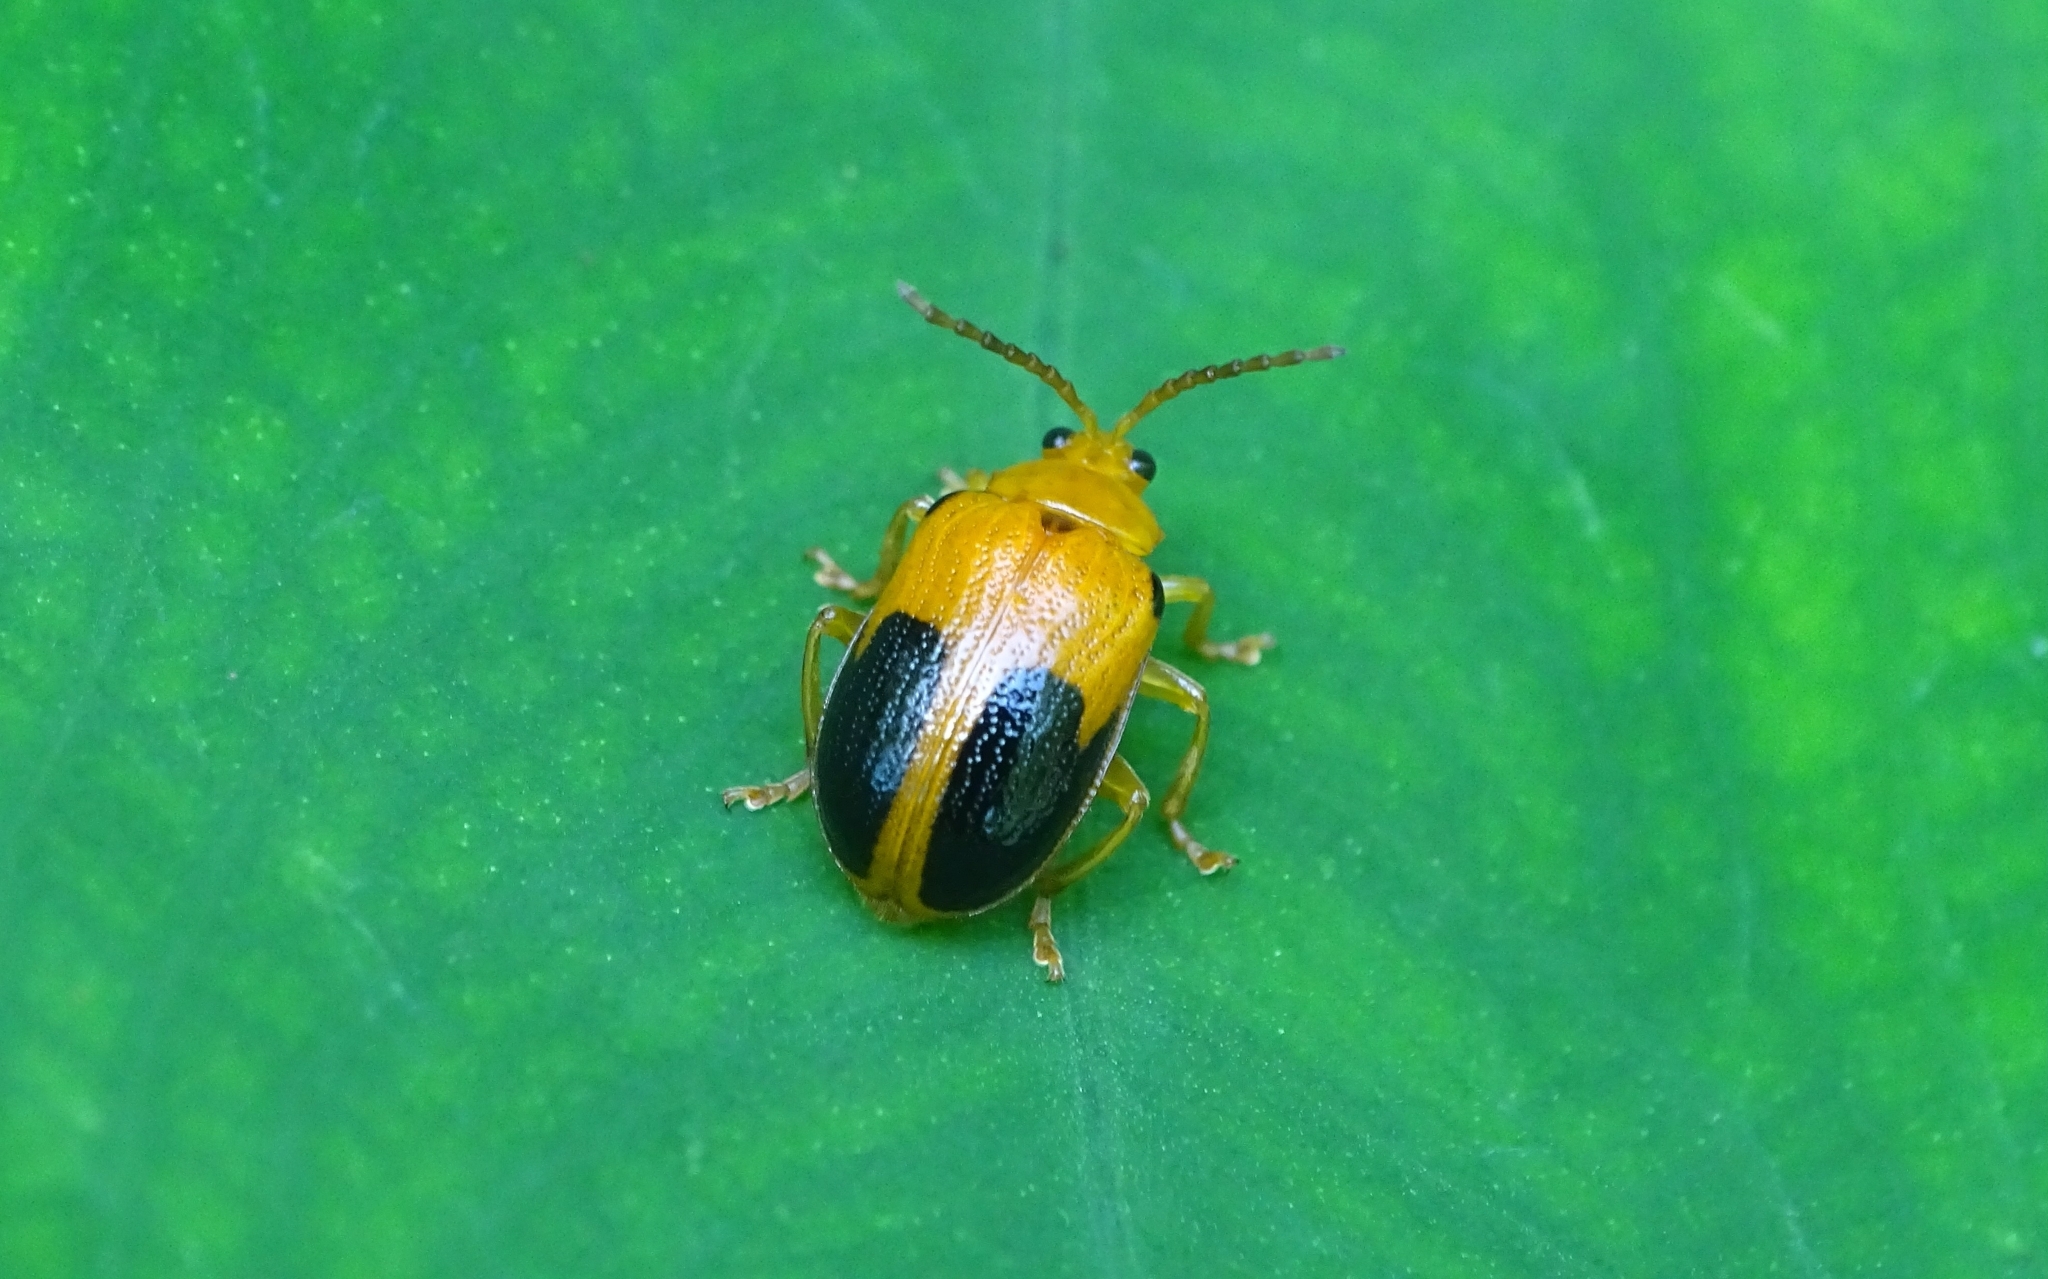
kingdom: Animalia
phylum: Arthropoda
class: Insecta
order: Coleoptera
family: Chrysomelidae
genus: Sphenoraia
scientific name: Sphenoraia
